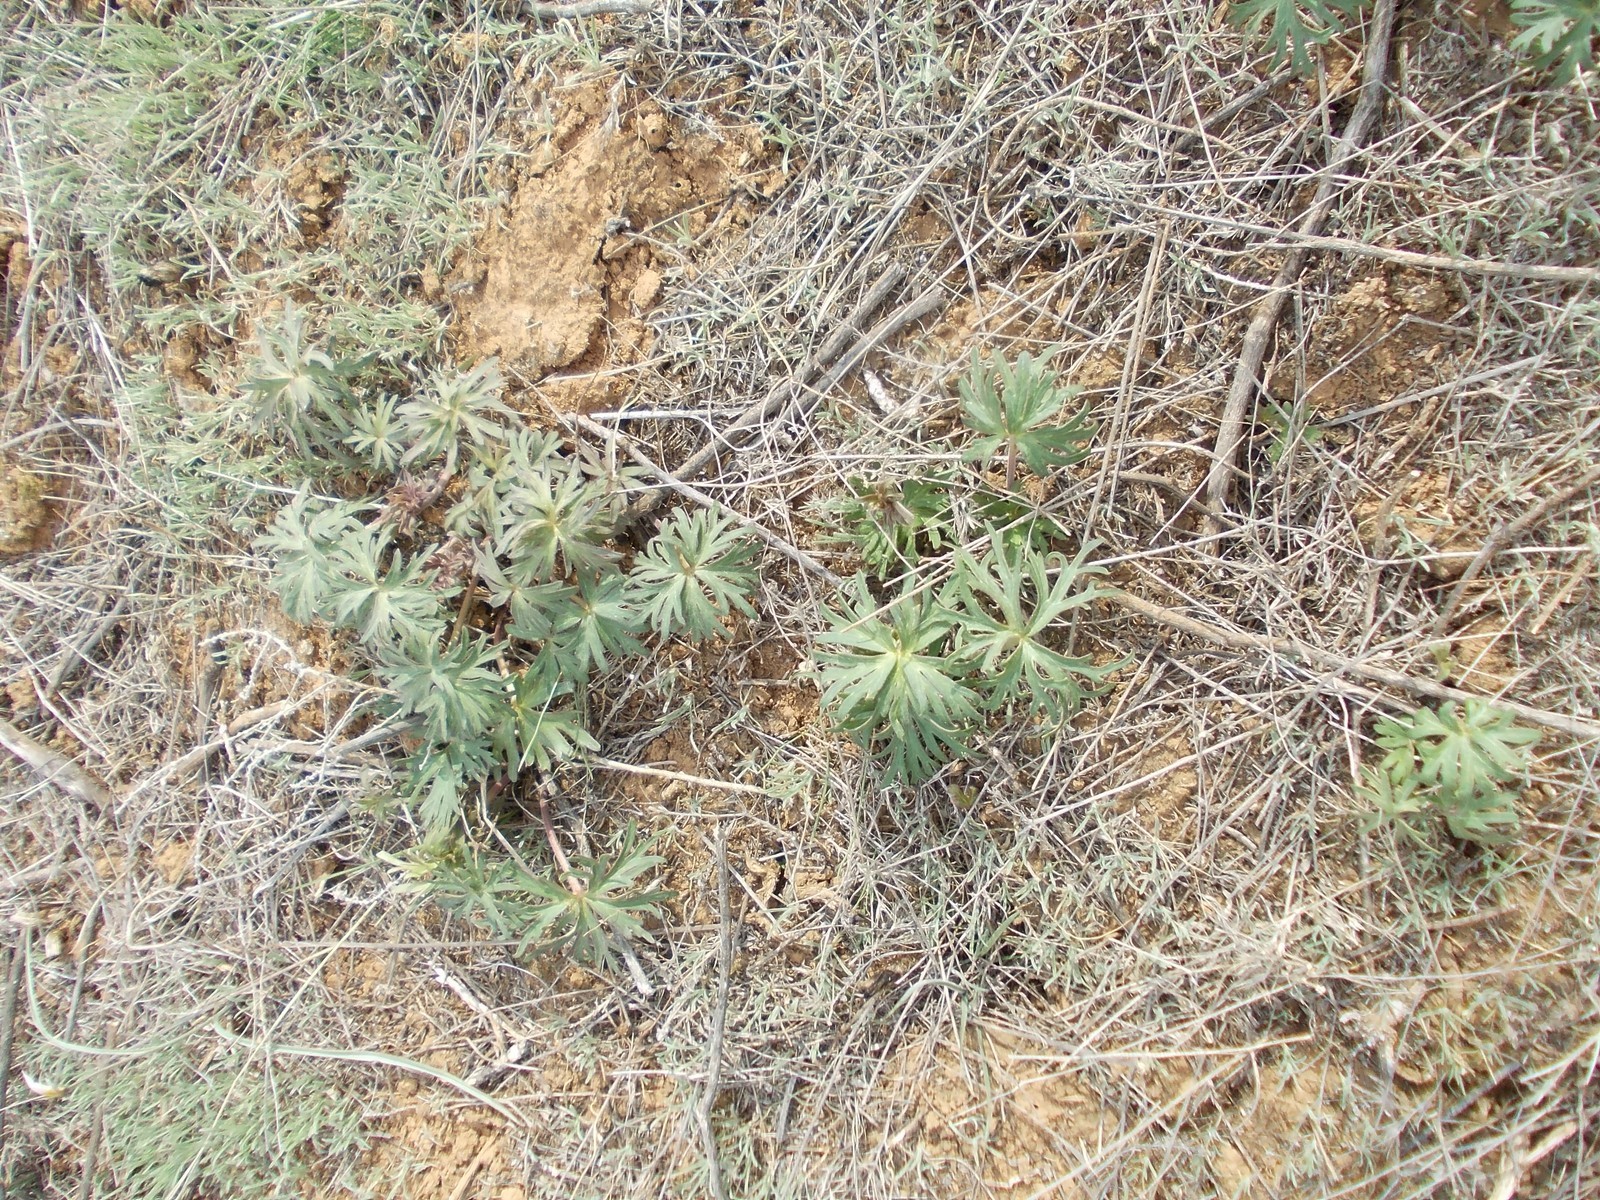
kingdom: Plantae
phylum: Tracheophyta
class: Magnoliopsida
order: Ranunculales
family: Ranunculaceae
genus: Delphinium
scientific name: Delphinium puniceum
